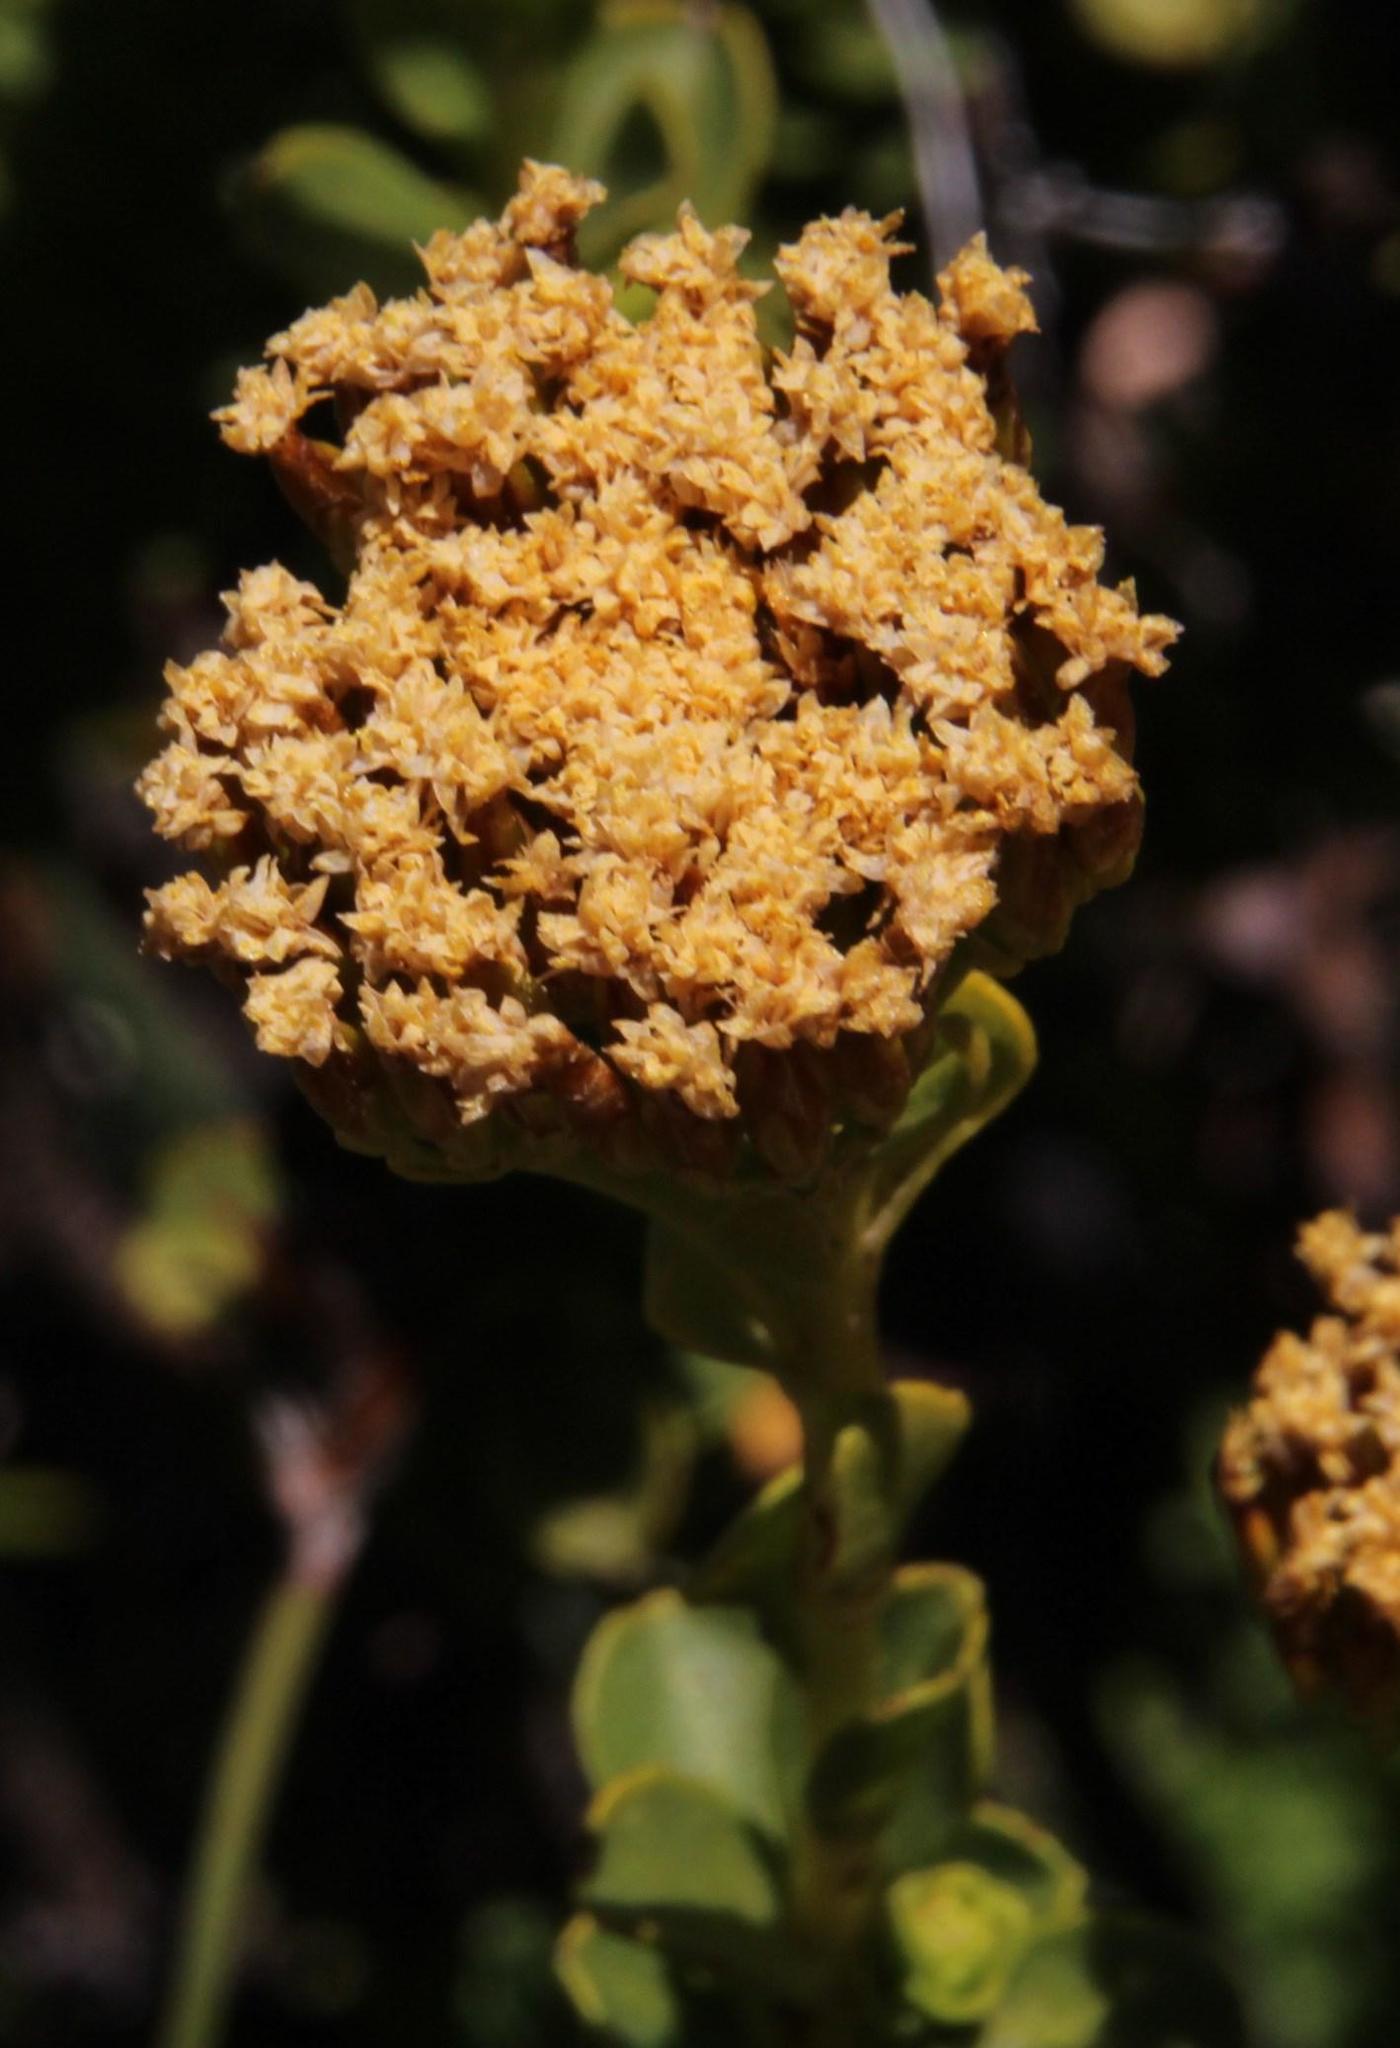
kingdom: Plantae
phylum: Tracheophyta
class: Magnoliopsida
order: Asterales
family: Asteraceae
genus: Athanasia
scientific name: Athanasia cuneifolia
